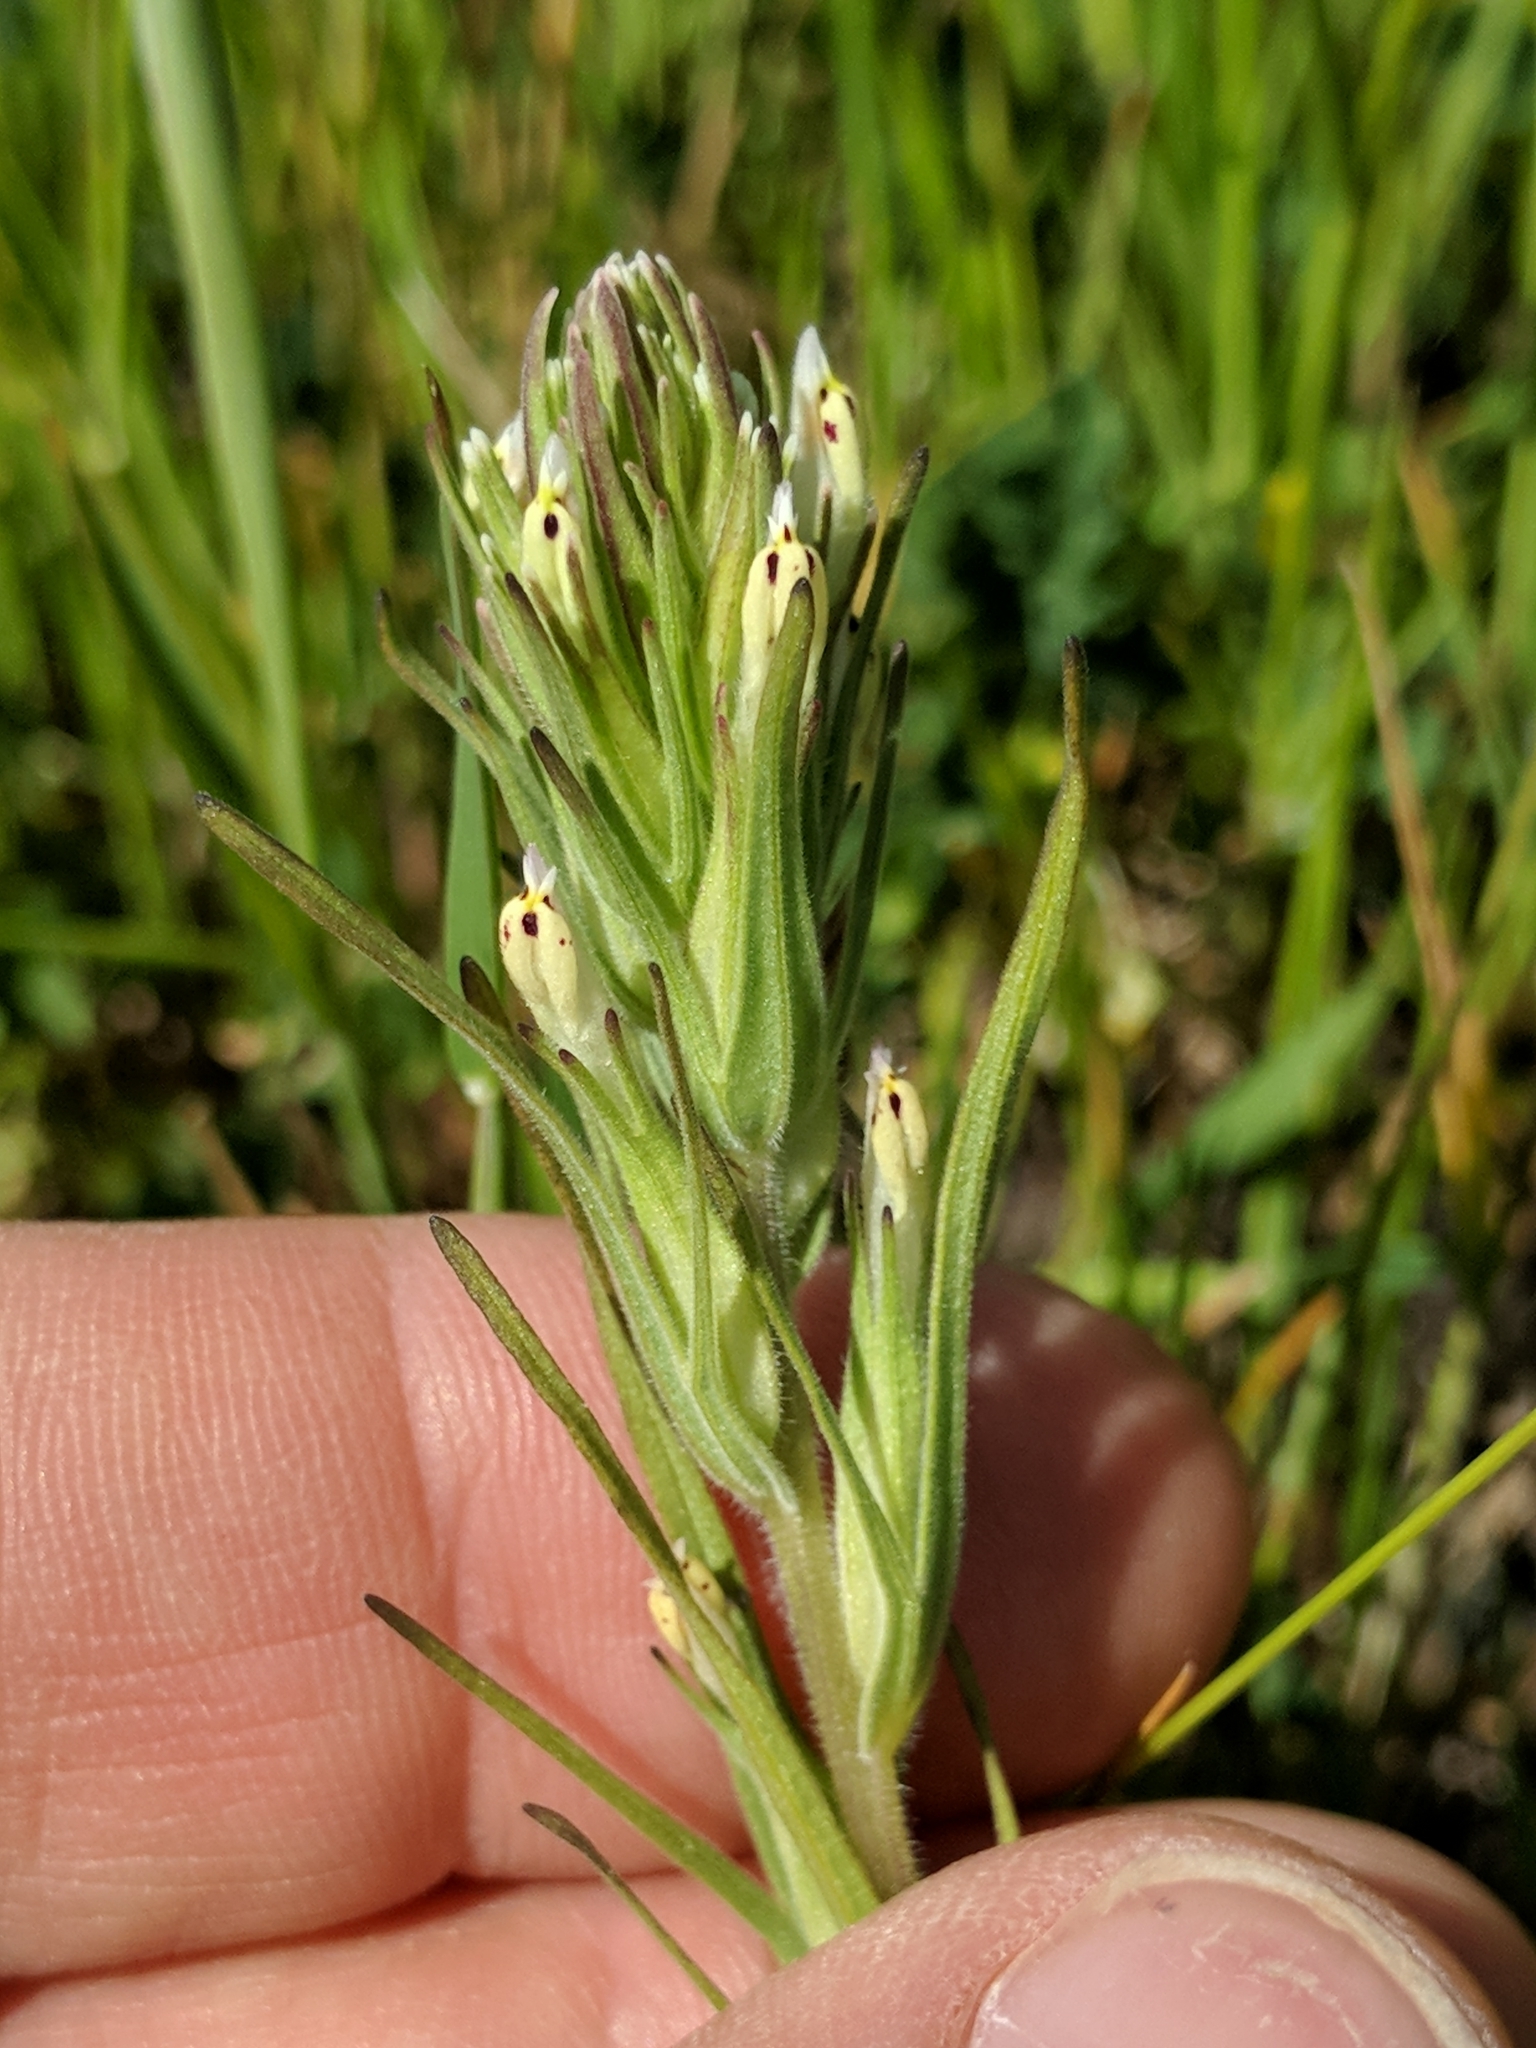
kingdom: Plantae
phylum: Tracheophyta
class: Magnoliopsida
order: Lamiales
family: Orobanchaceae
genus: Castilleja
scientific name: Castilleja attenuata
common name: Valley tassels
